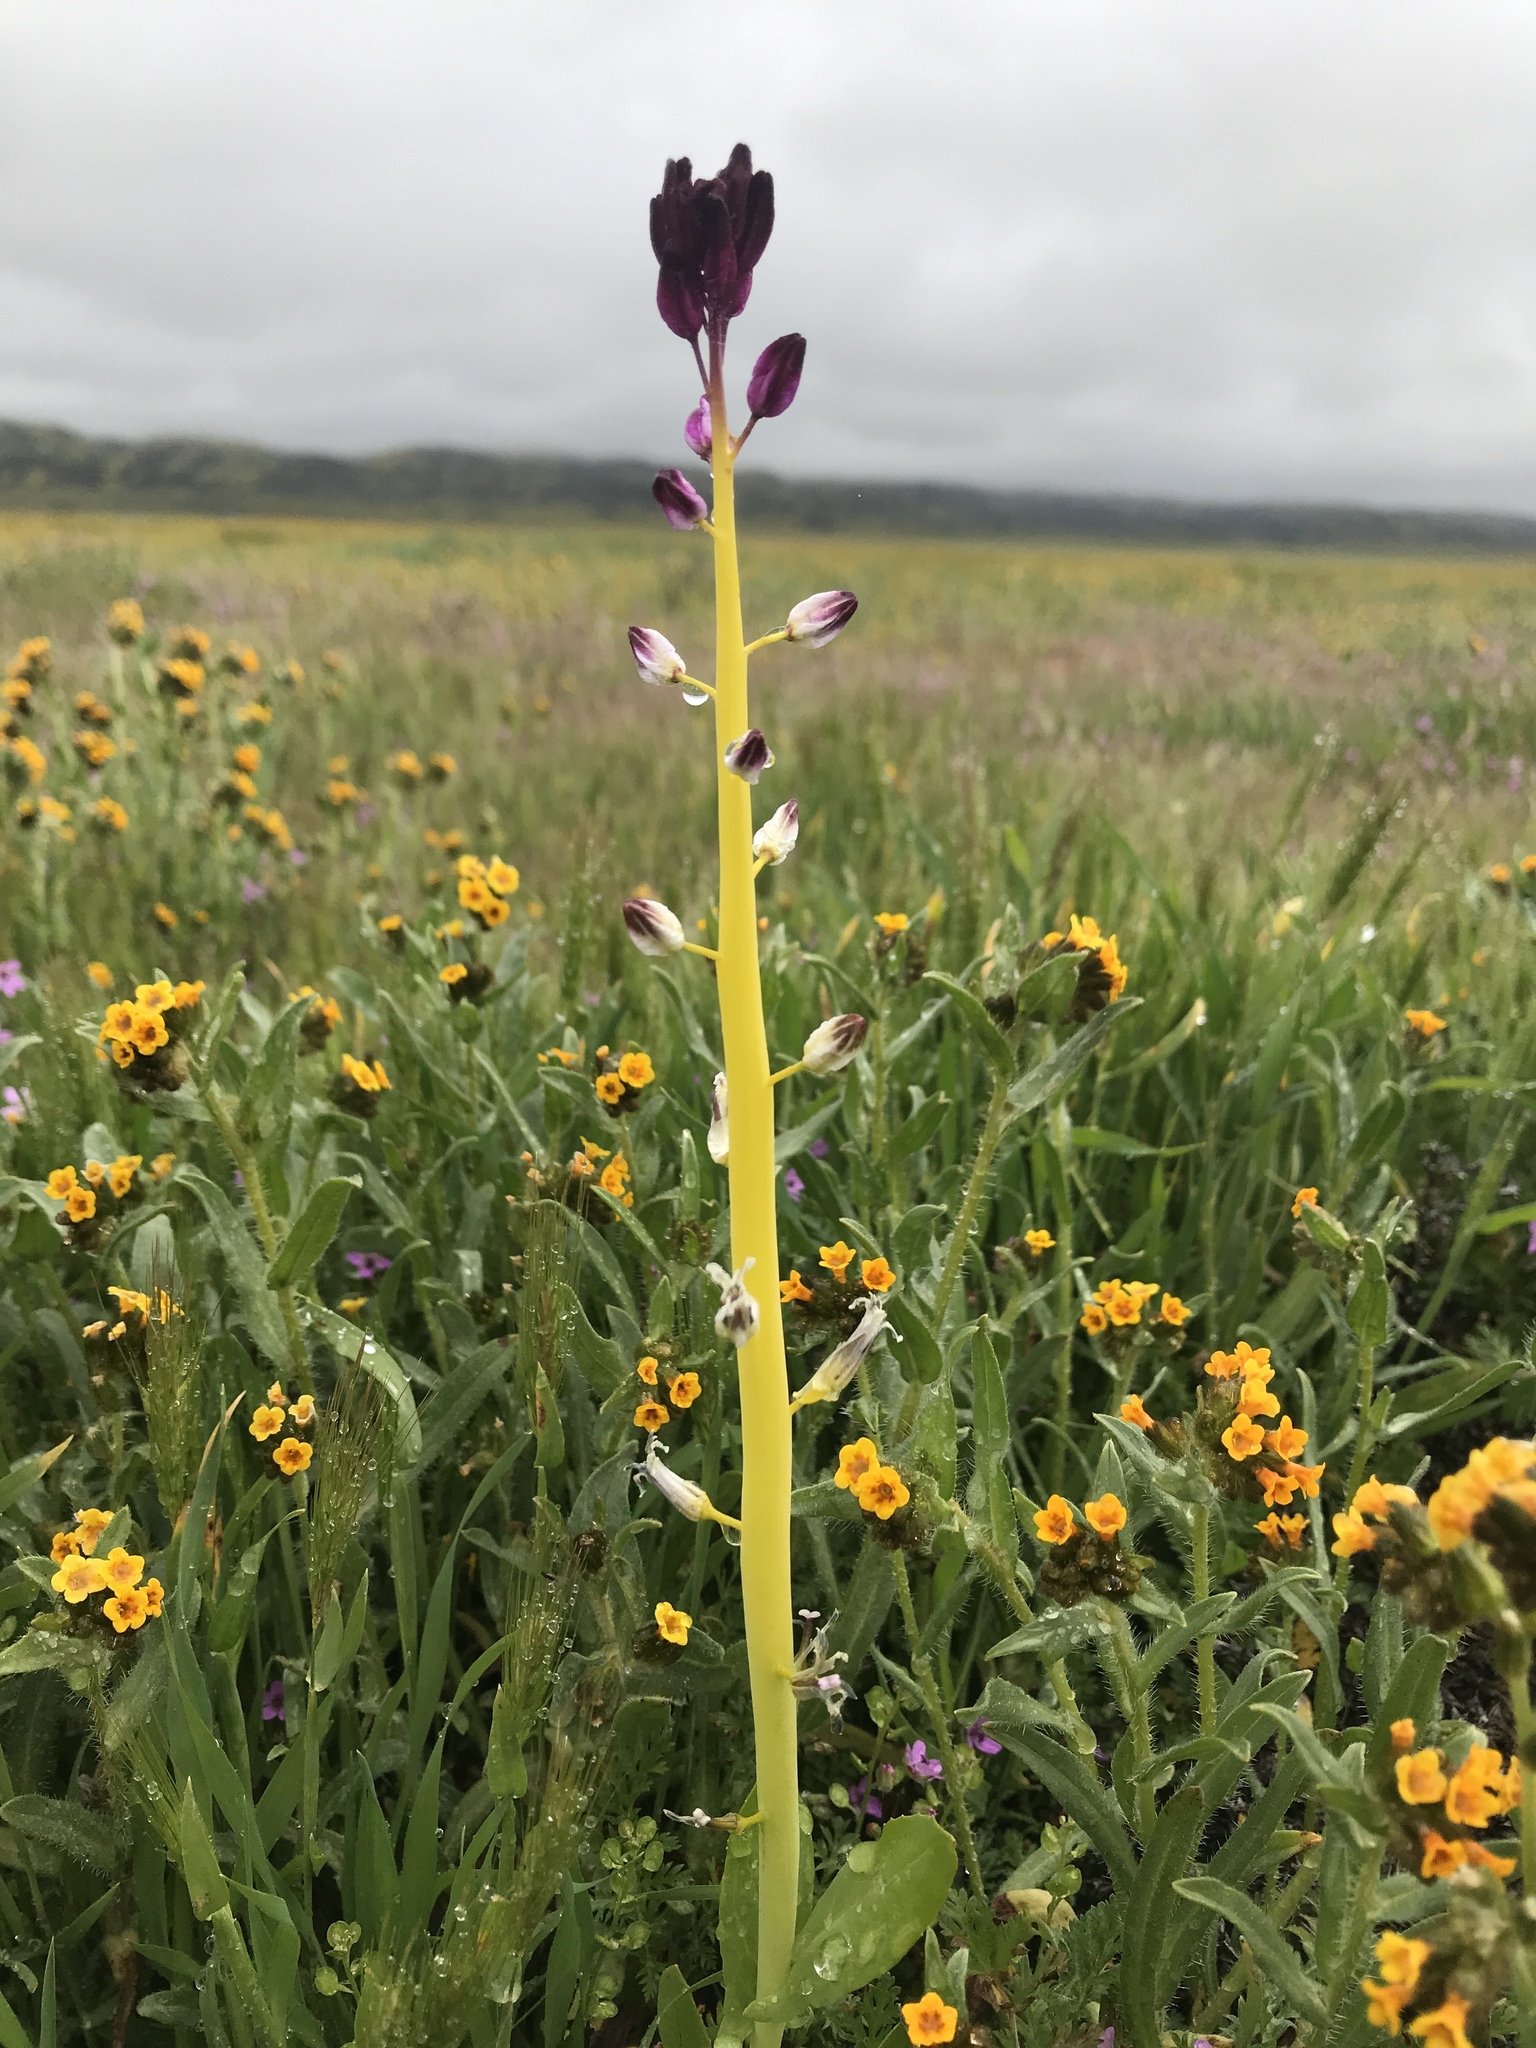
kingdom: Plantae
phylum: Tracheophyta
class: Magnoliopsida
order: Brassicales
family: Brassicaceae
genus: Streptanthus
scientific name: Streptanthus inflatus
